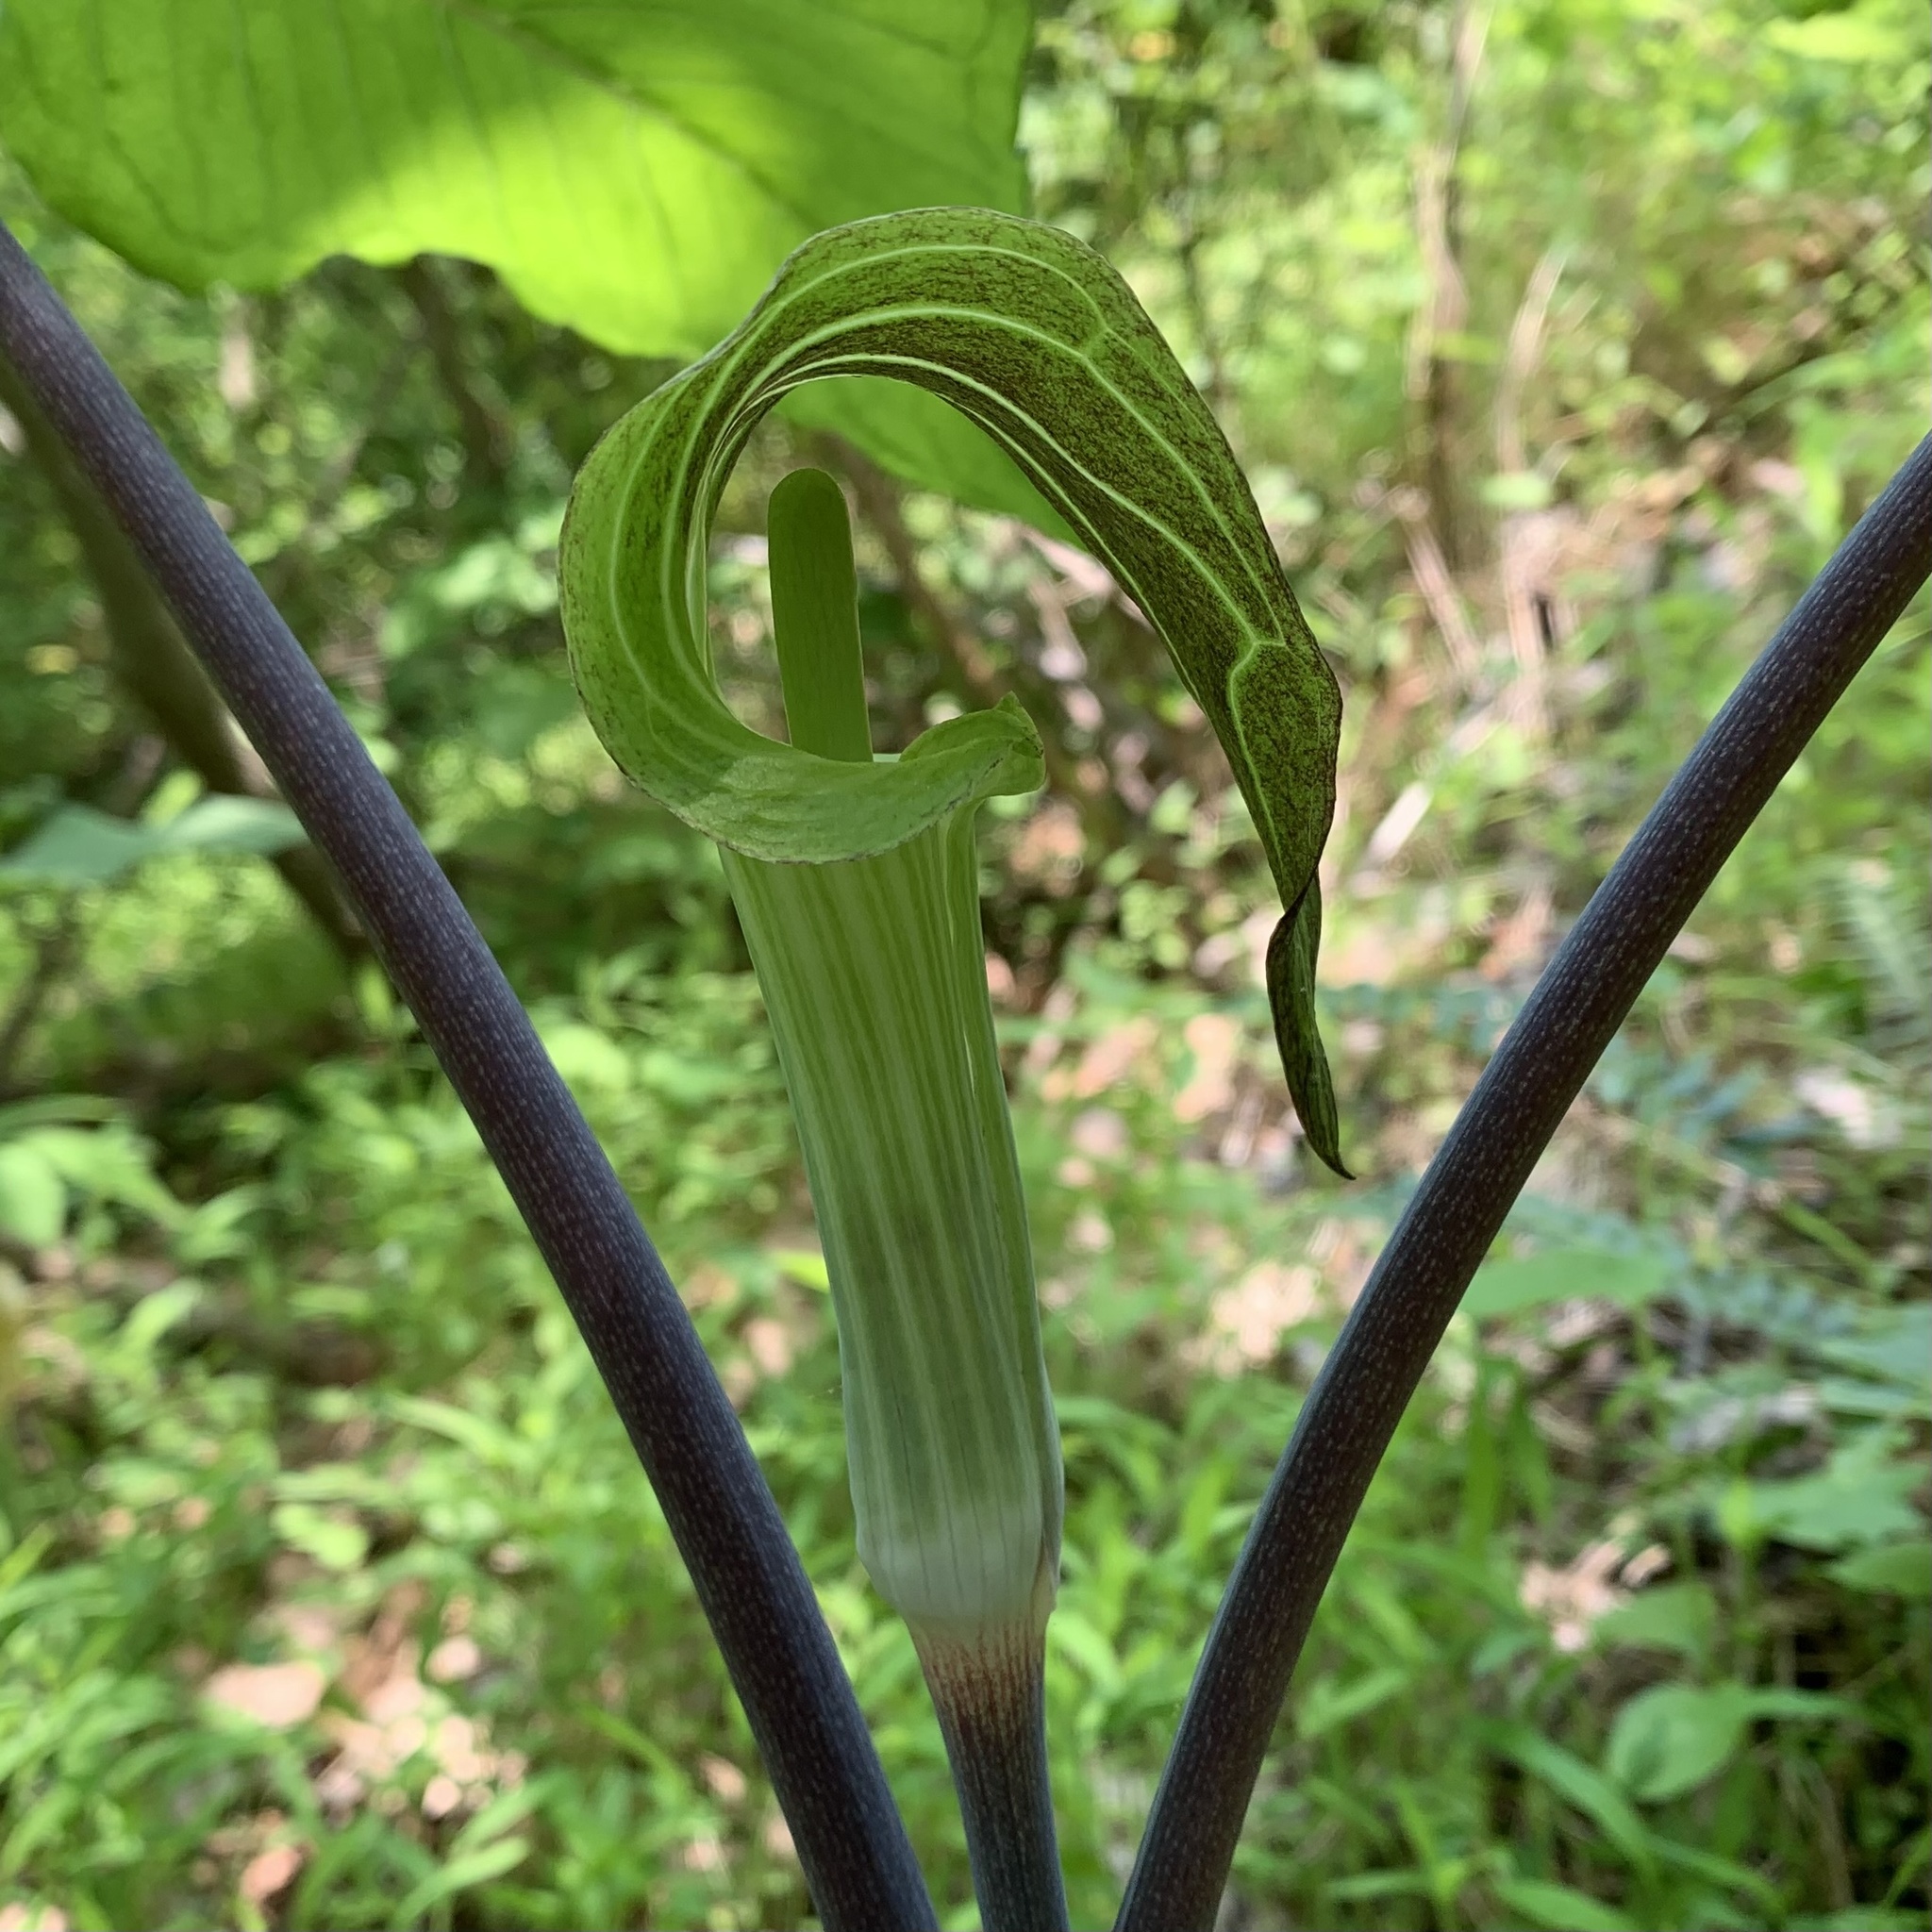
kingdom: Plantae
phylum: Tracheophyta
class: Liliopsida
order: Alismatales
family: Araceae
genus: Arisaema
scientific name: Arisaema triphyllum
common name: Jack-in-the-pulpit
